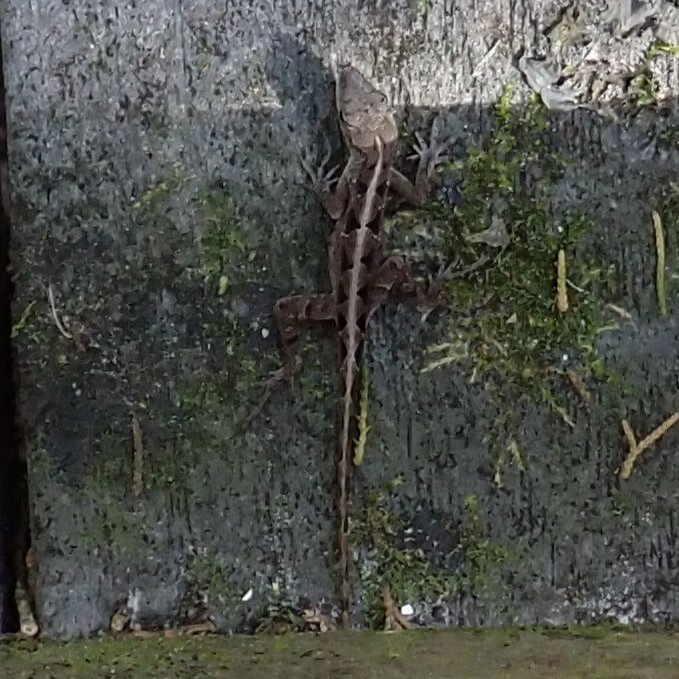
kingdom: Animalia
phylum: Chordata
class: Squamata
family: Dactyloidae
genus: Anolis
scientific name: Anolis sagrei
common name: Brown anole
